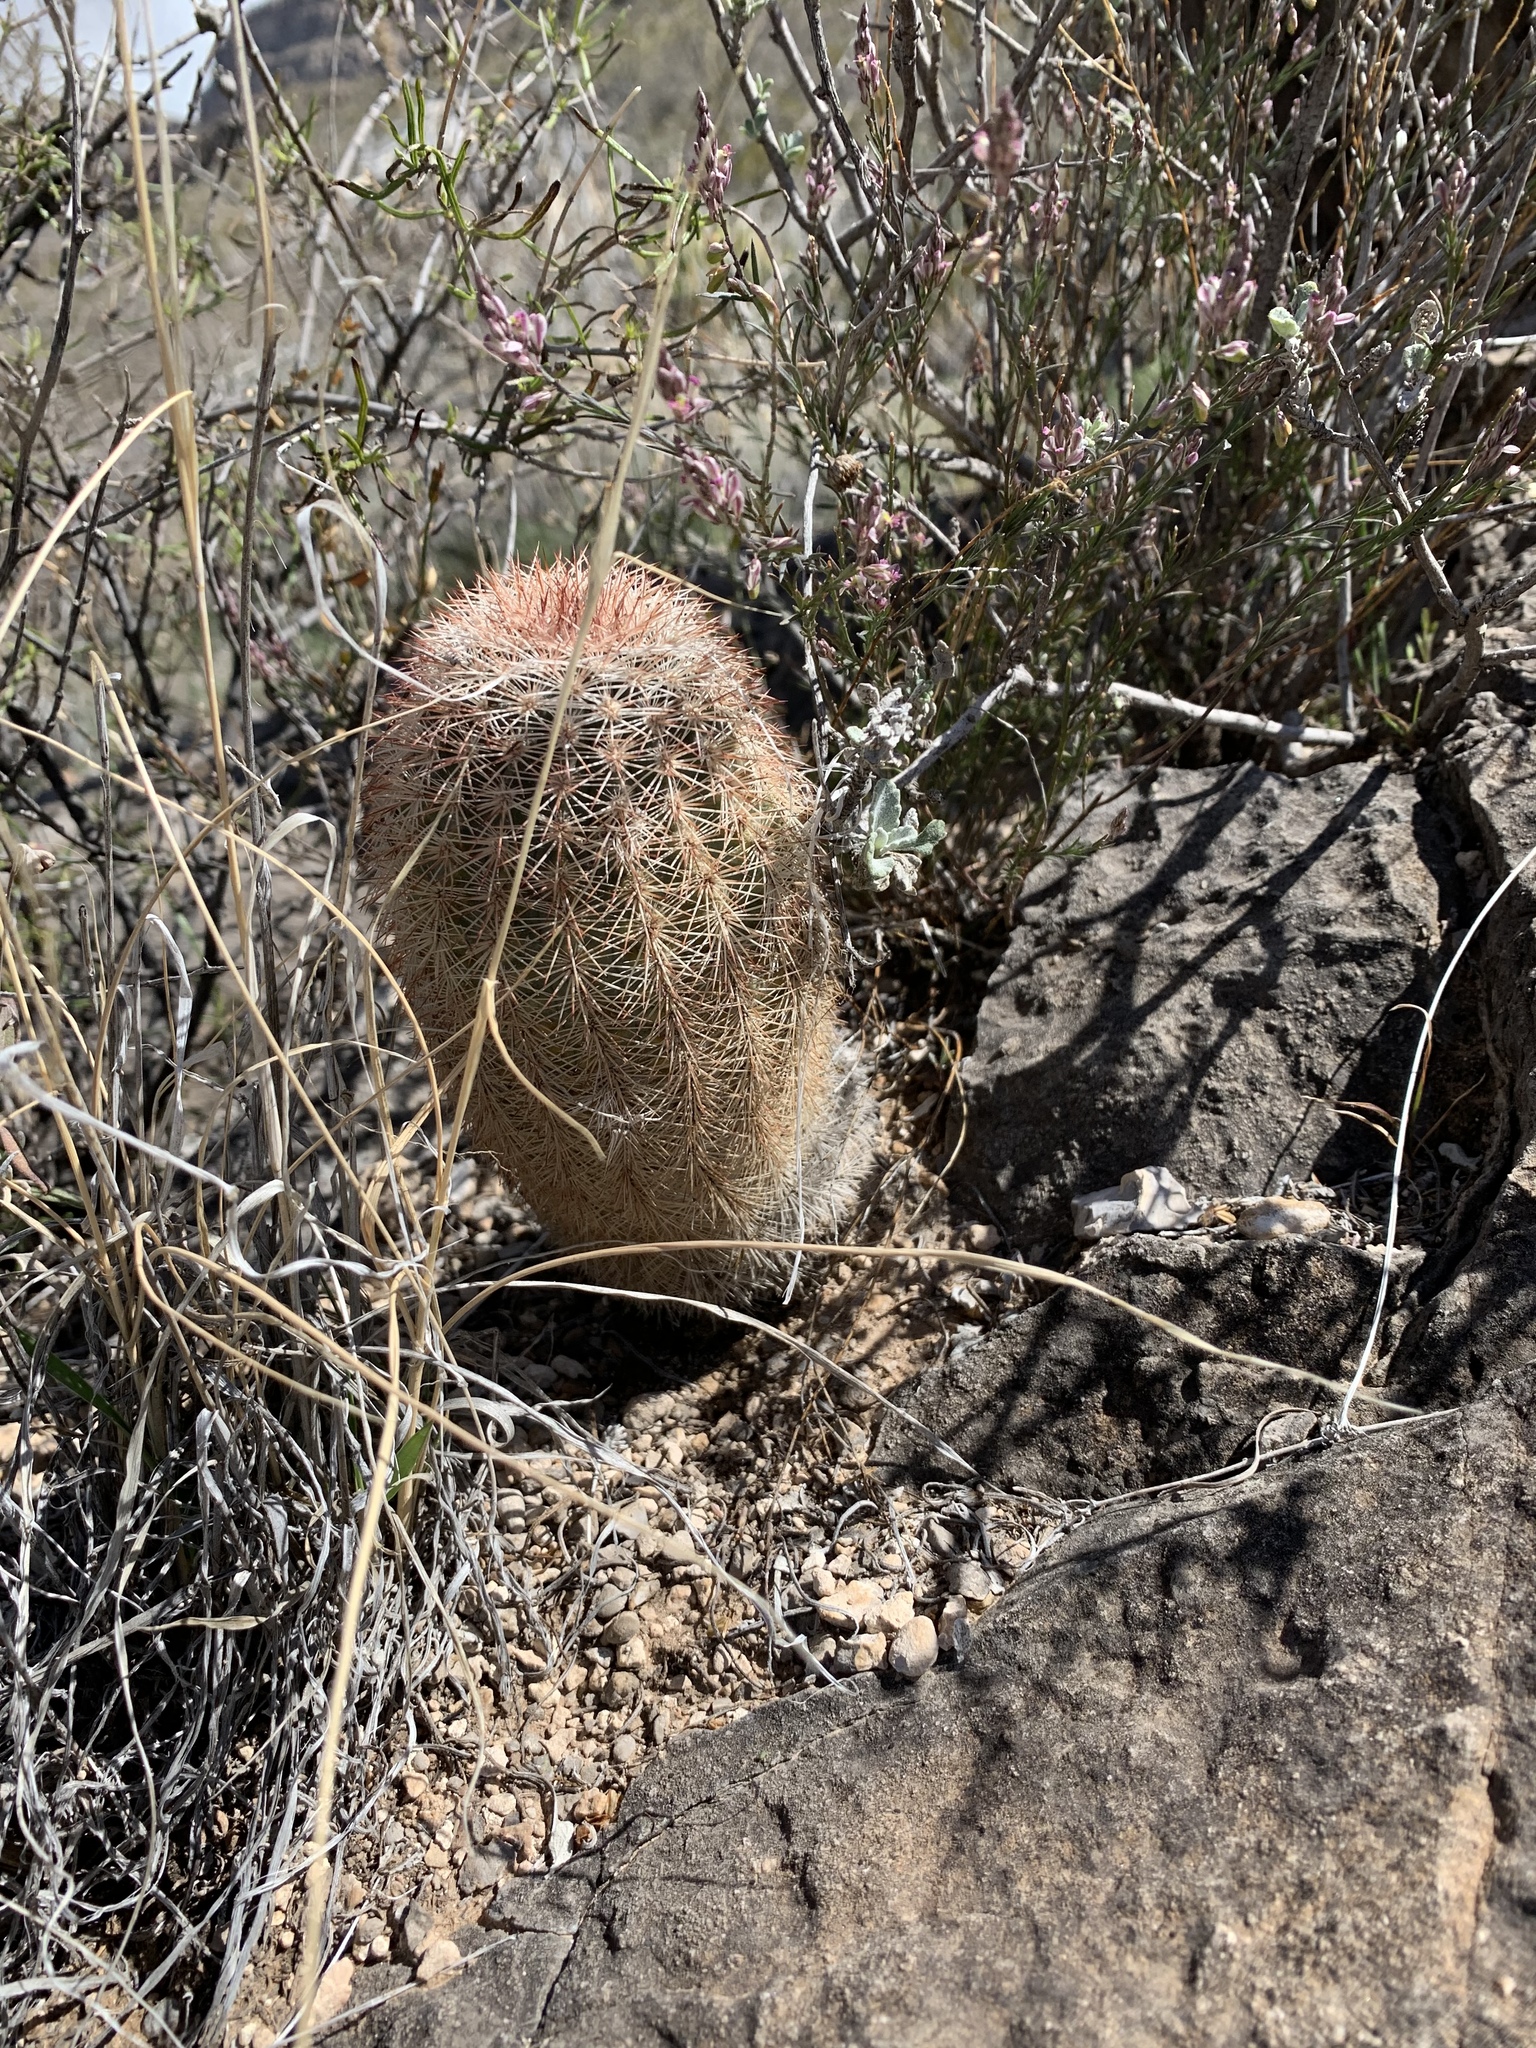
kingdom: Plantae
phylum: Tracheophyta
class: Magnoliopsida
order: Caryophyllales
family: Cactaceae
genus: Echinocereus
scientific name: Echinocereus dasyacanthus
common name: Spiny hedgehog cactus
